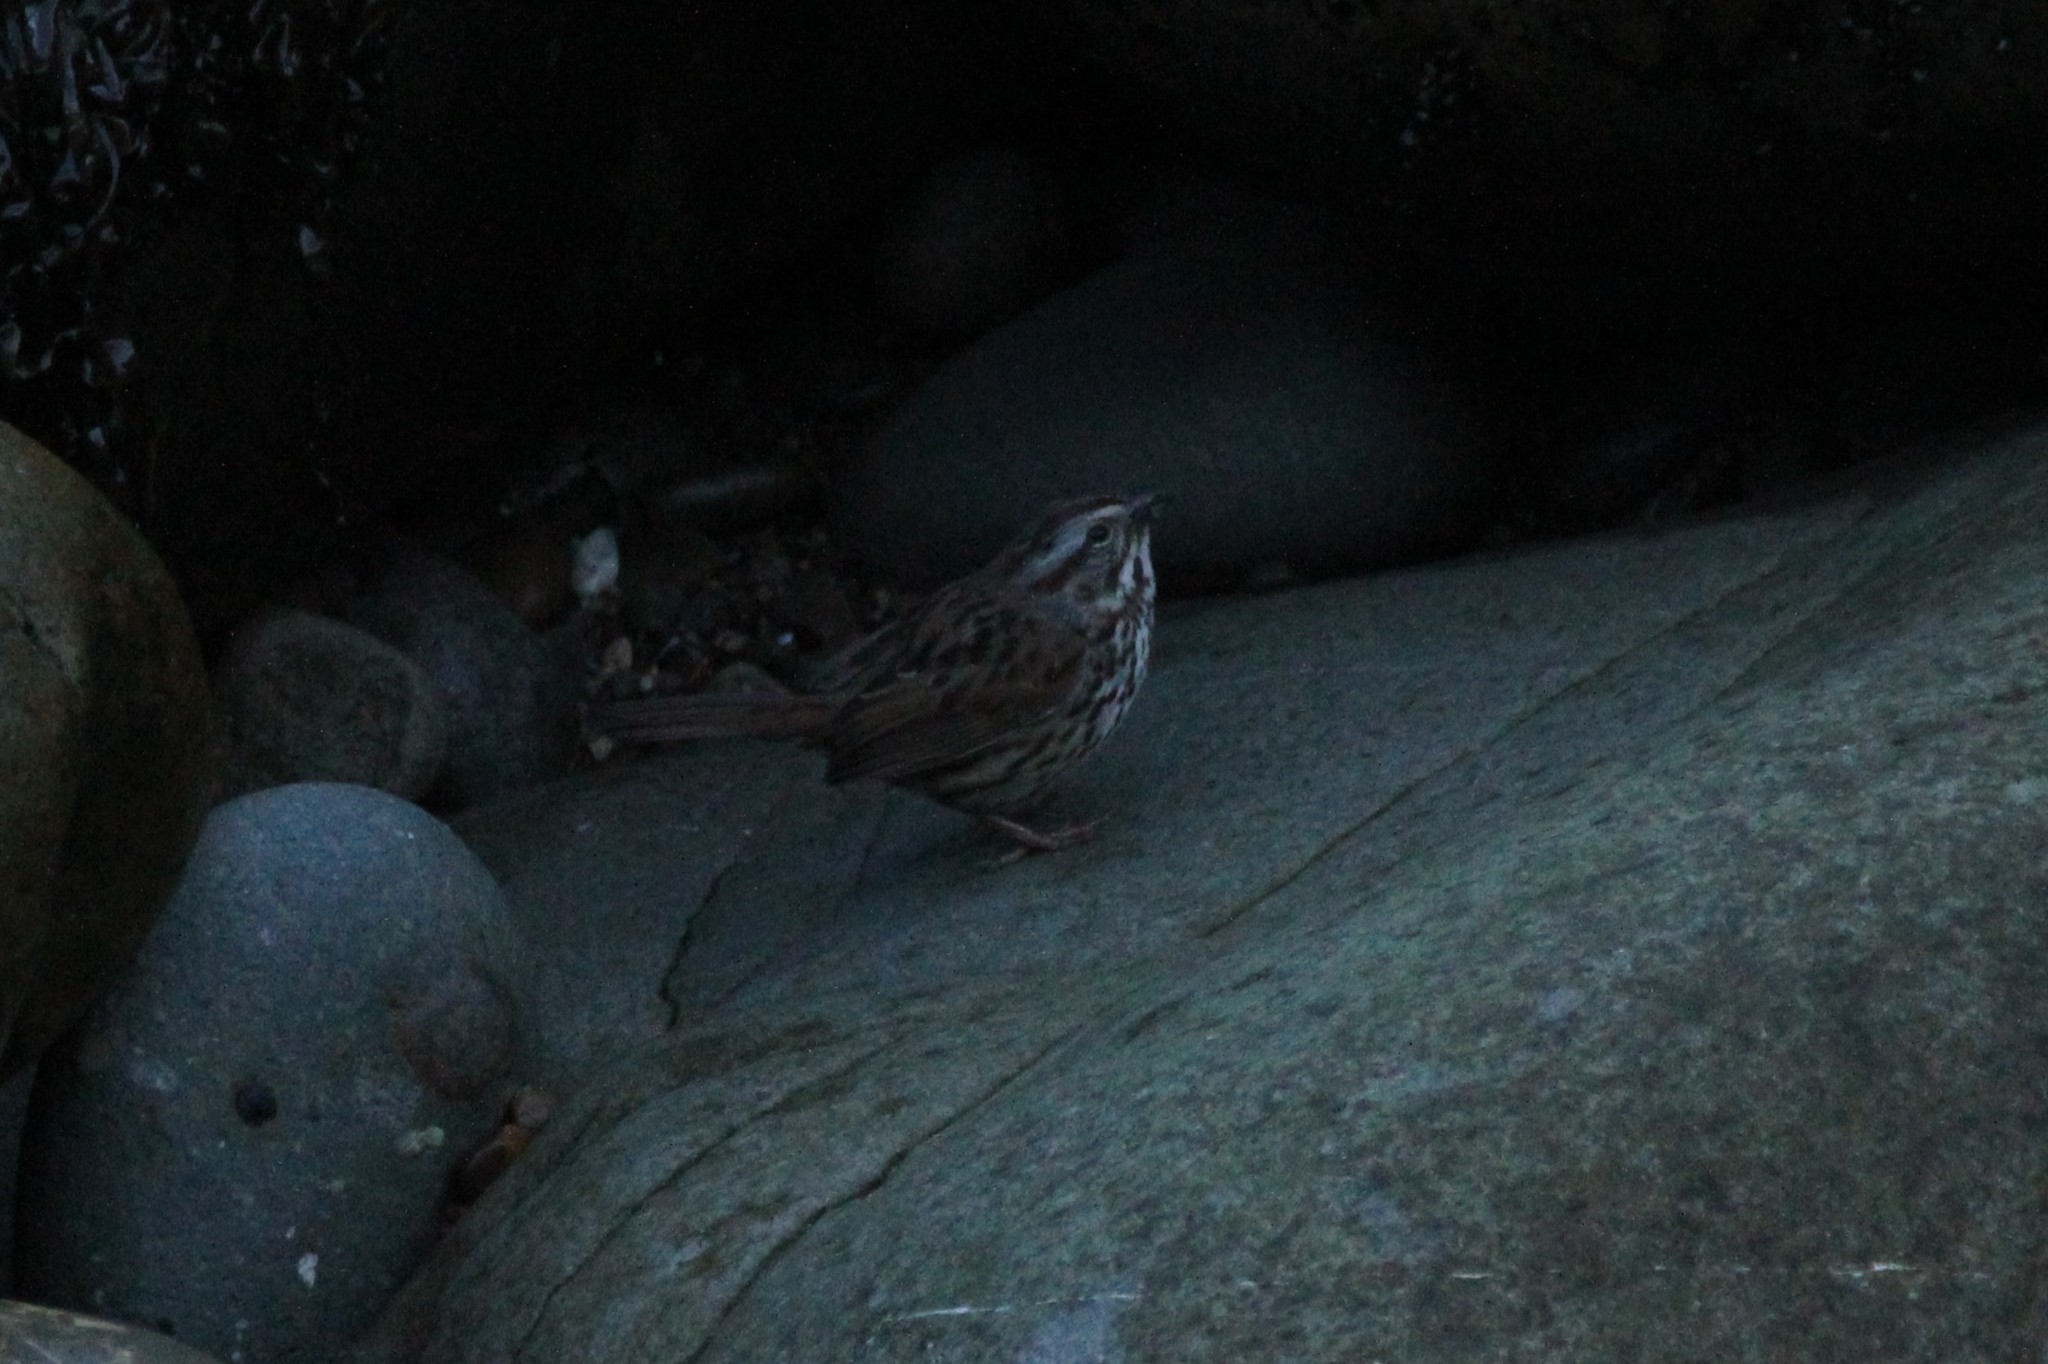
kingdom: Animalia
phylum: Chordata
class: Aves
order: Passeriformes
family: Passerellidae
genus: Melospiza
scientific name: Melospiza melodia
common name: Song sparrow
